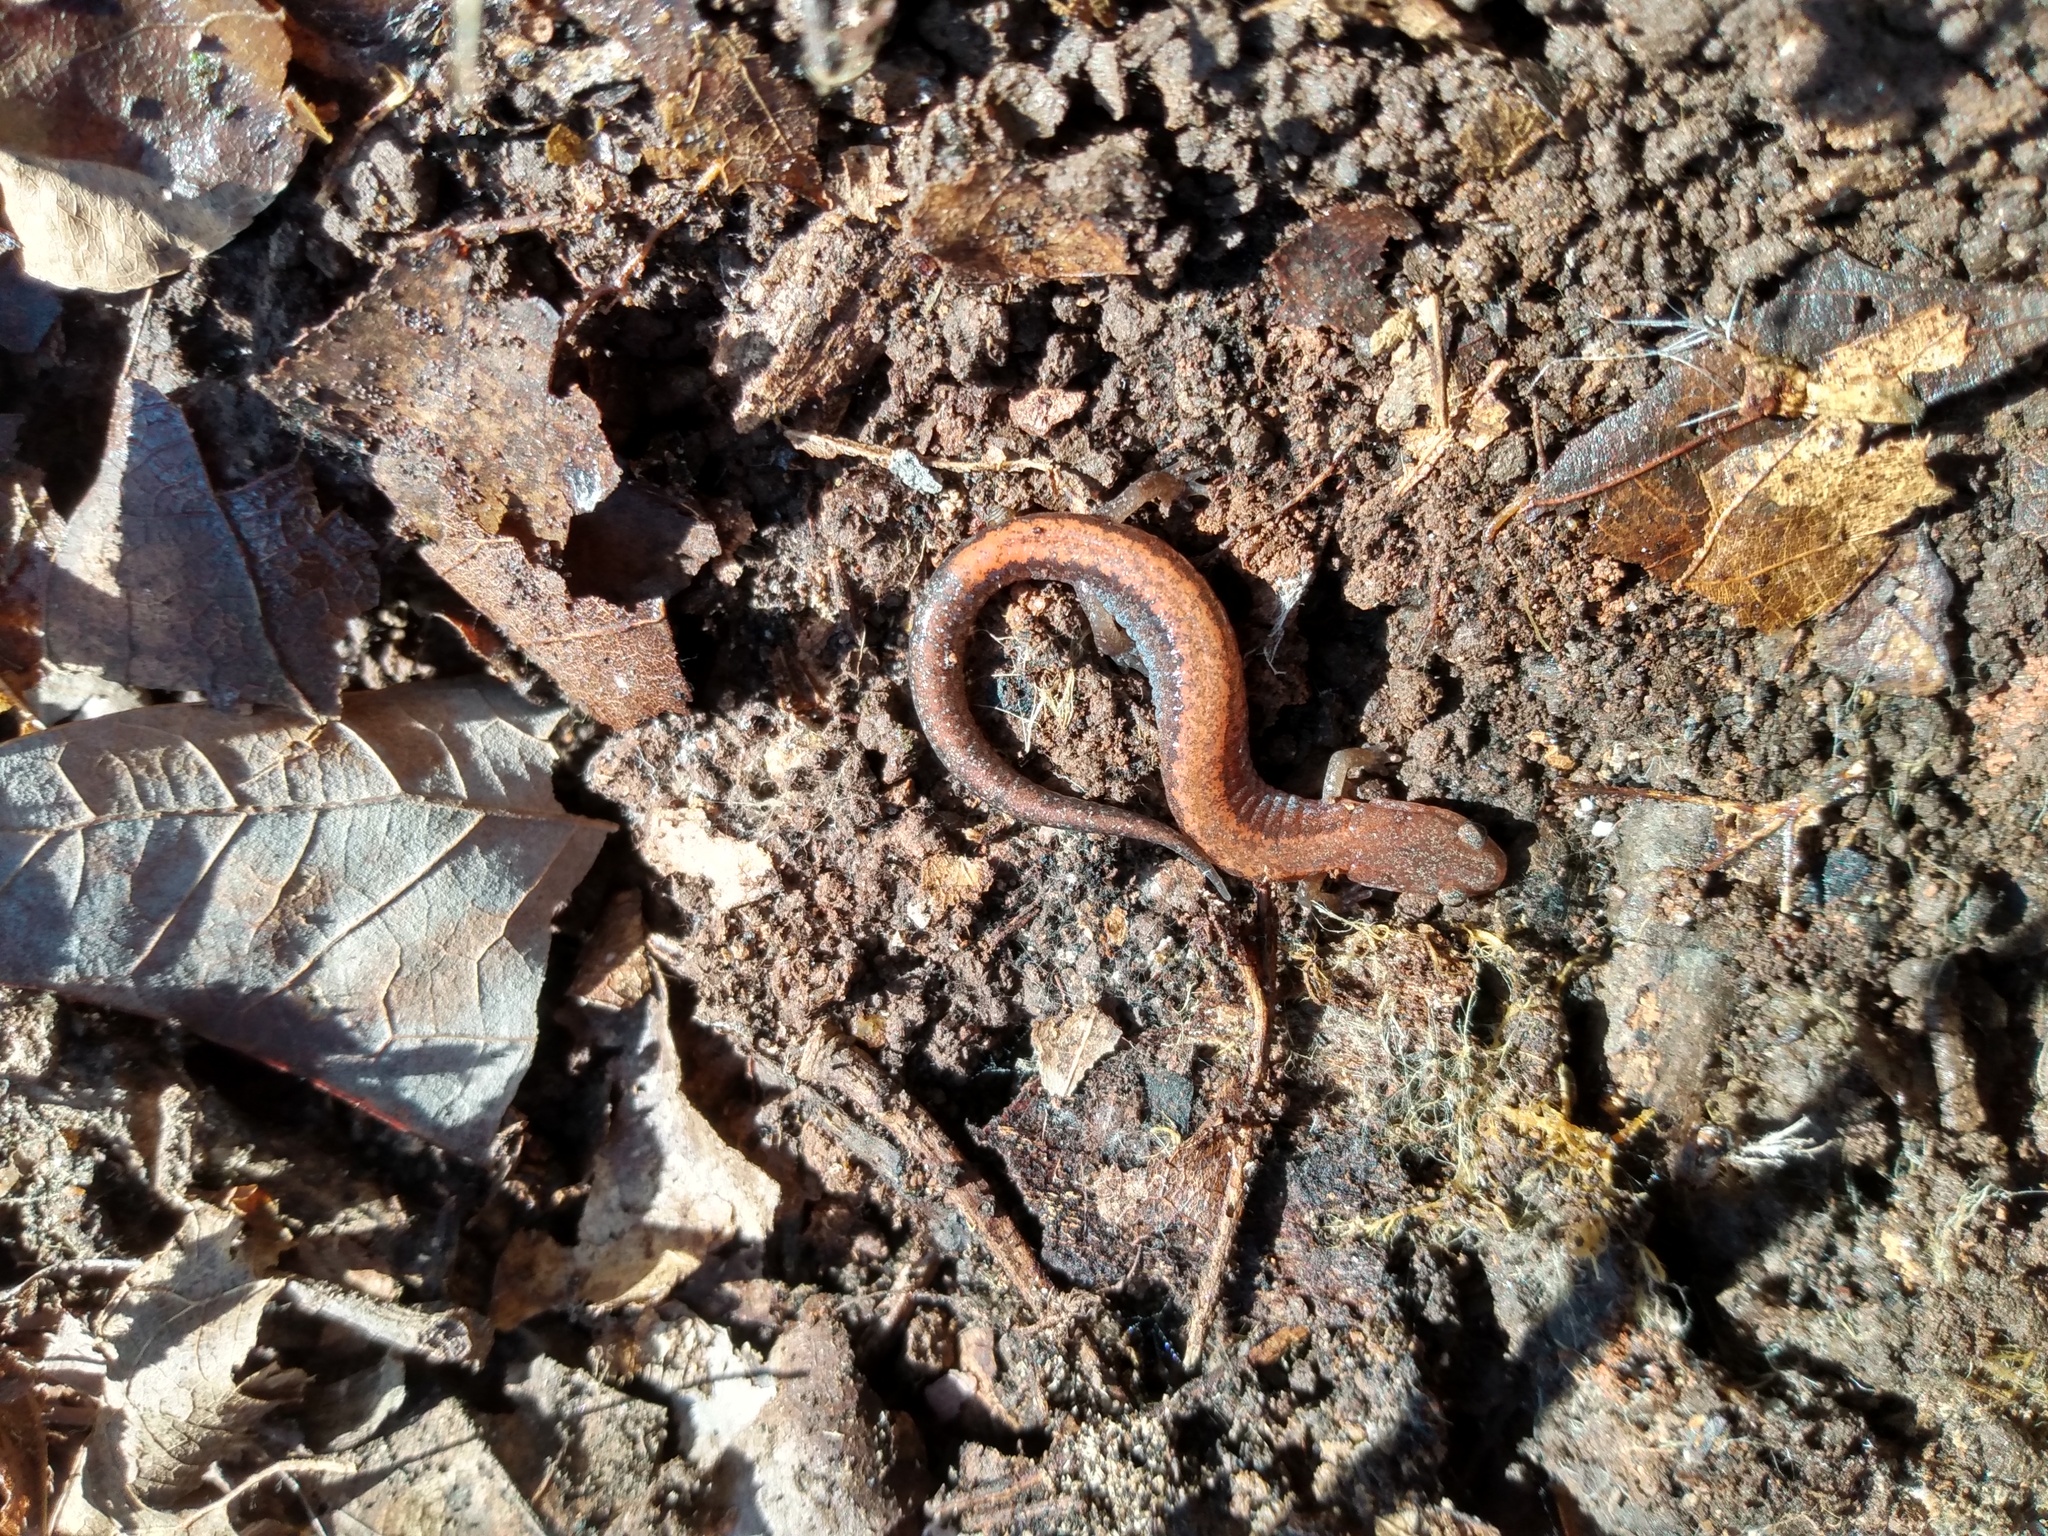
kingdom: Animalia
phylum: Chordata
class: Amphibia
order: Caudata
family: Plethodontidae
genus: Plethodon
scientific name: Plethodon serratus
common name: Southern red-backed salamander
